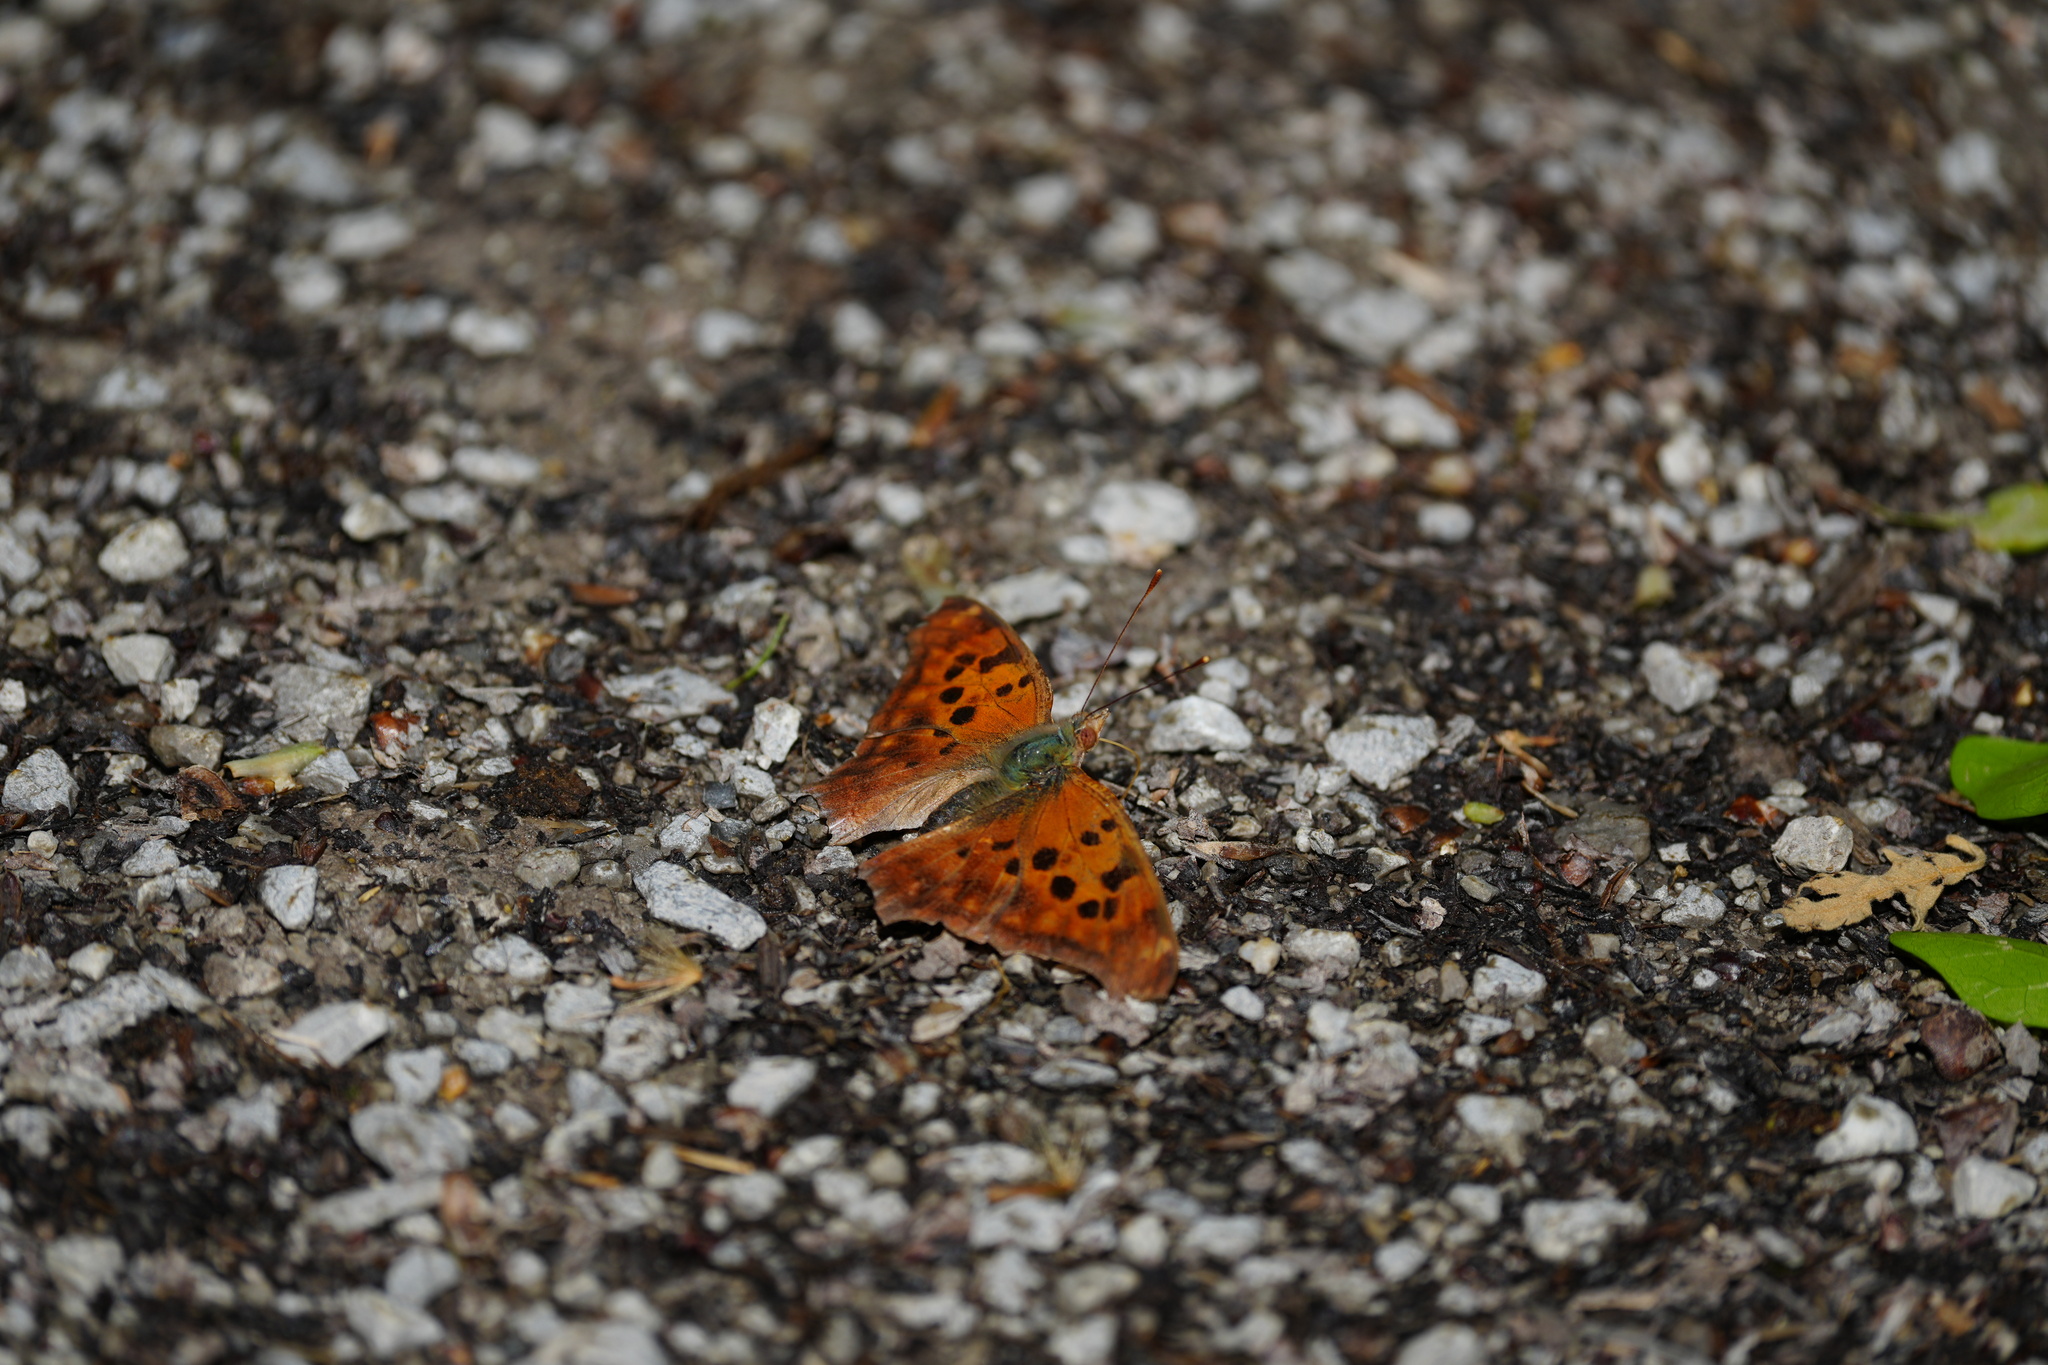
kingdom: Animalia
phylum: Arthropoda
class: Insecta
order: Lepidoptera
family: Nymphalidae
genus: Polygonia
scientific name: Polygonia interrogationis
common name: Question mark
